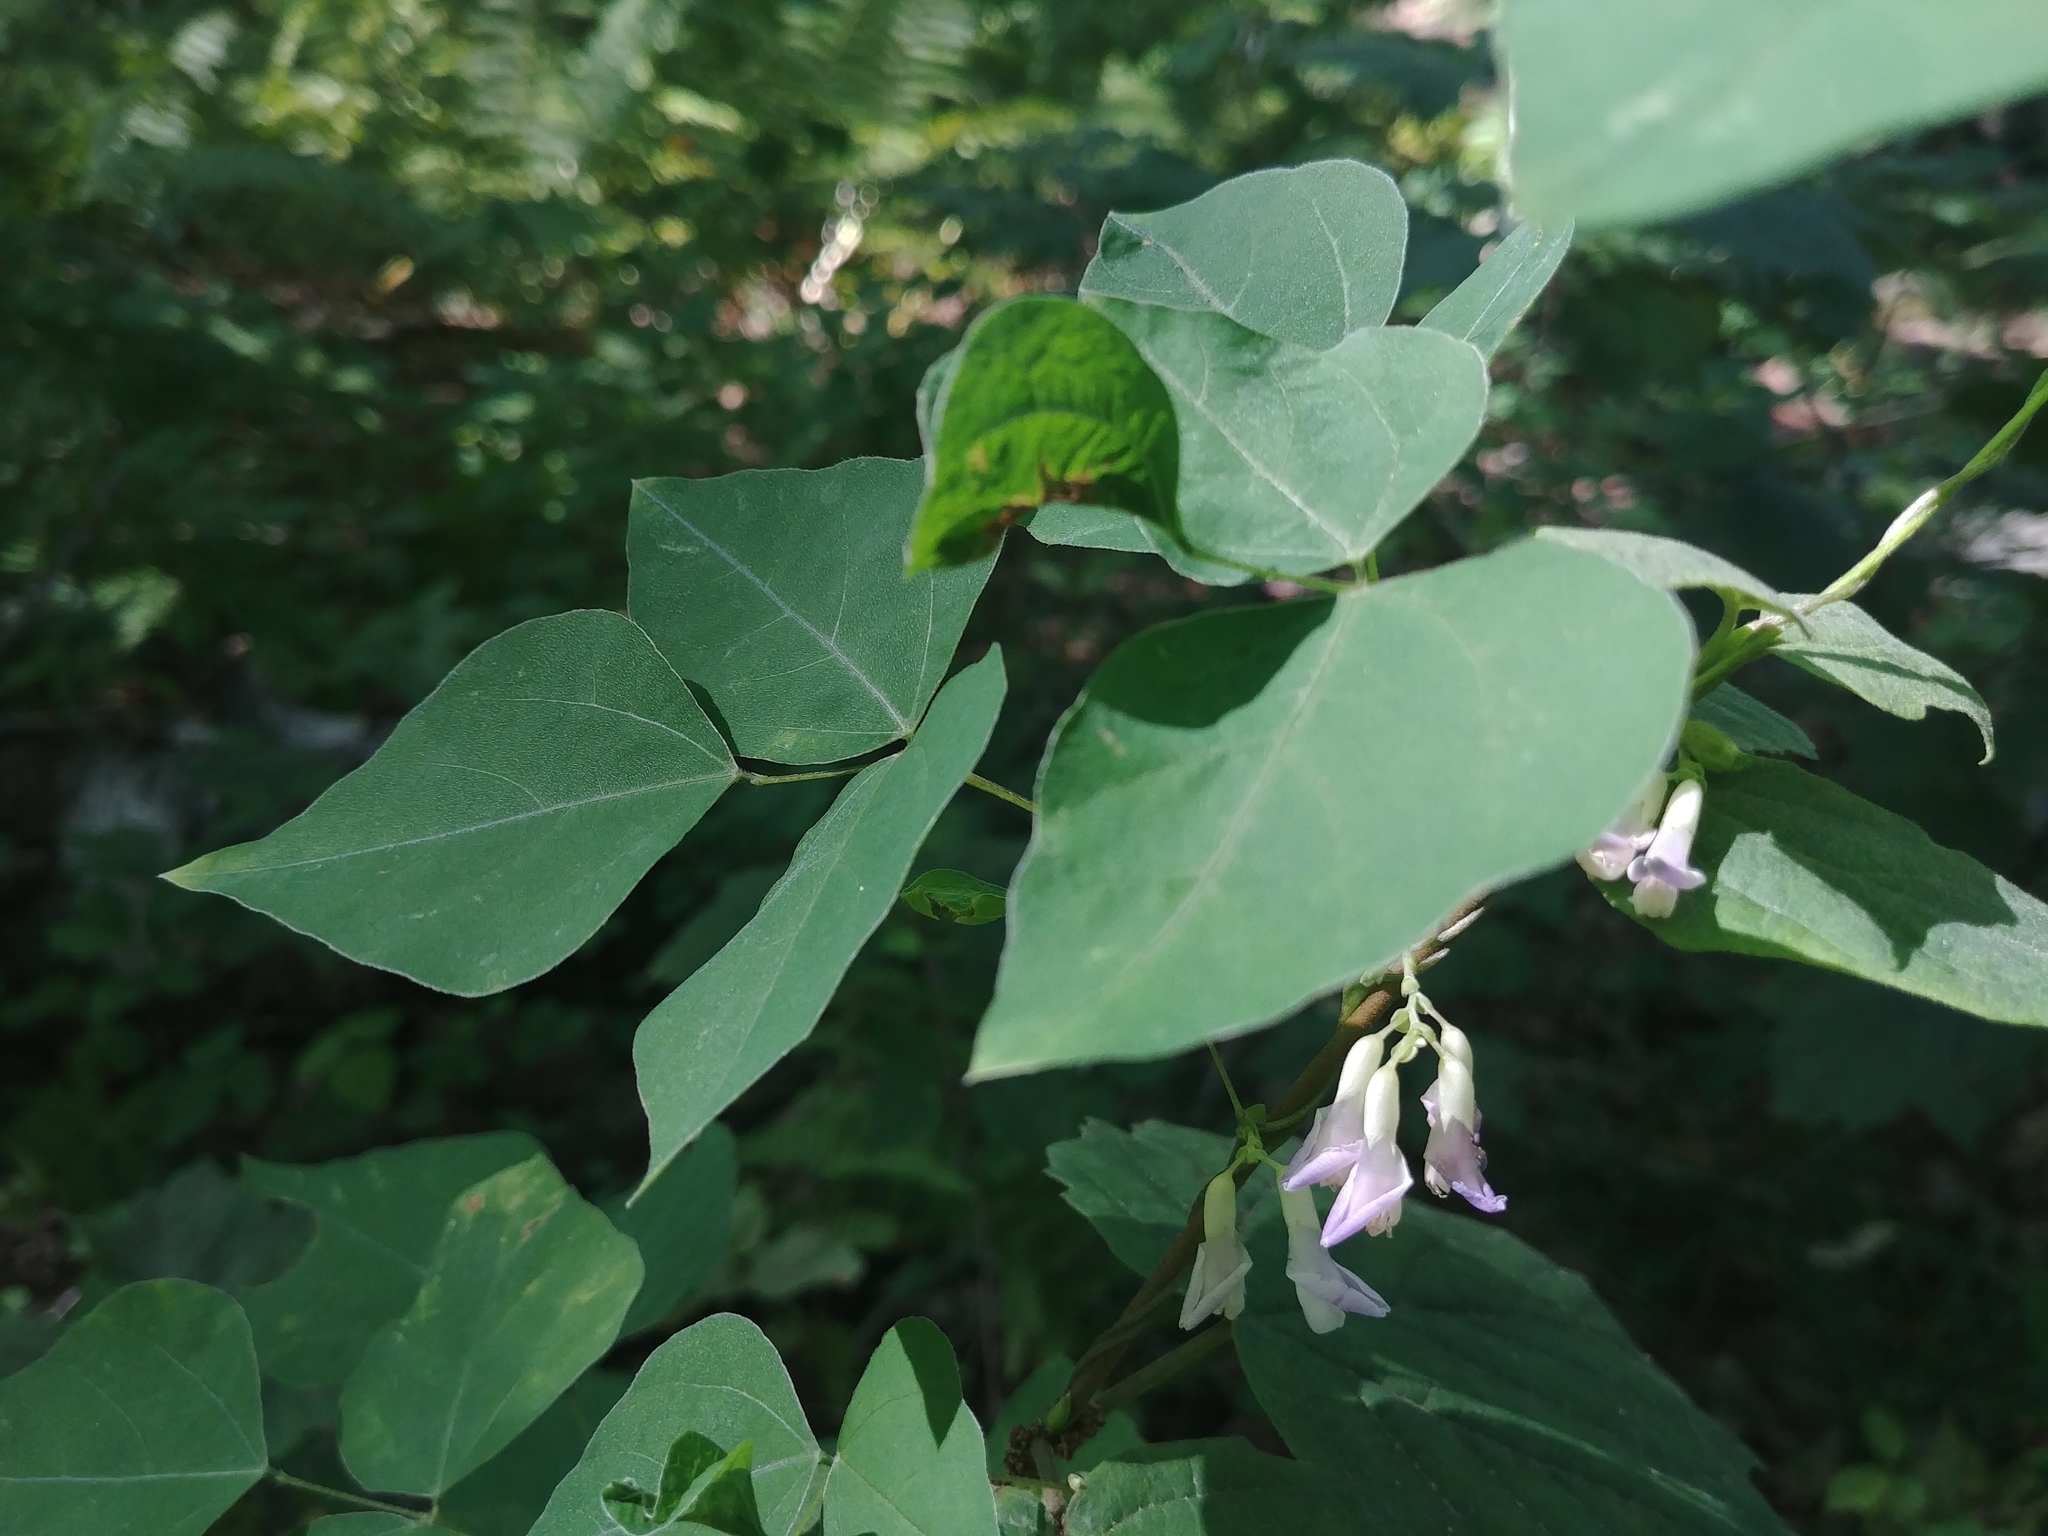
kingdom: Plantae
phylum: Tracheophyta
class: Magnoliopsida
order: Fabales
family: Fabaceae
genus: Amphicarpaea
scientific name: Amphicarpaea bracteata
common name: American hog peanut
